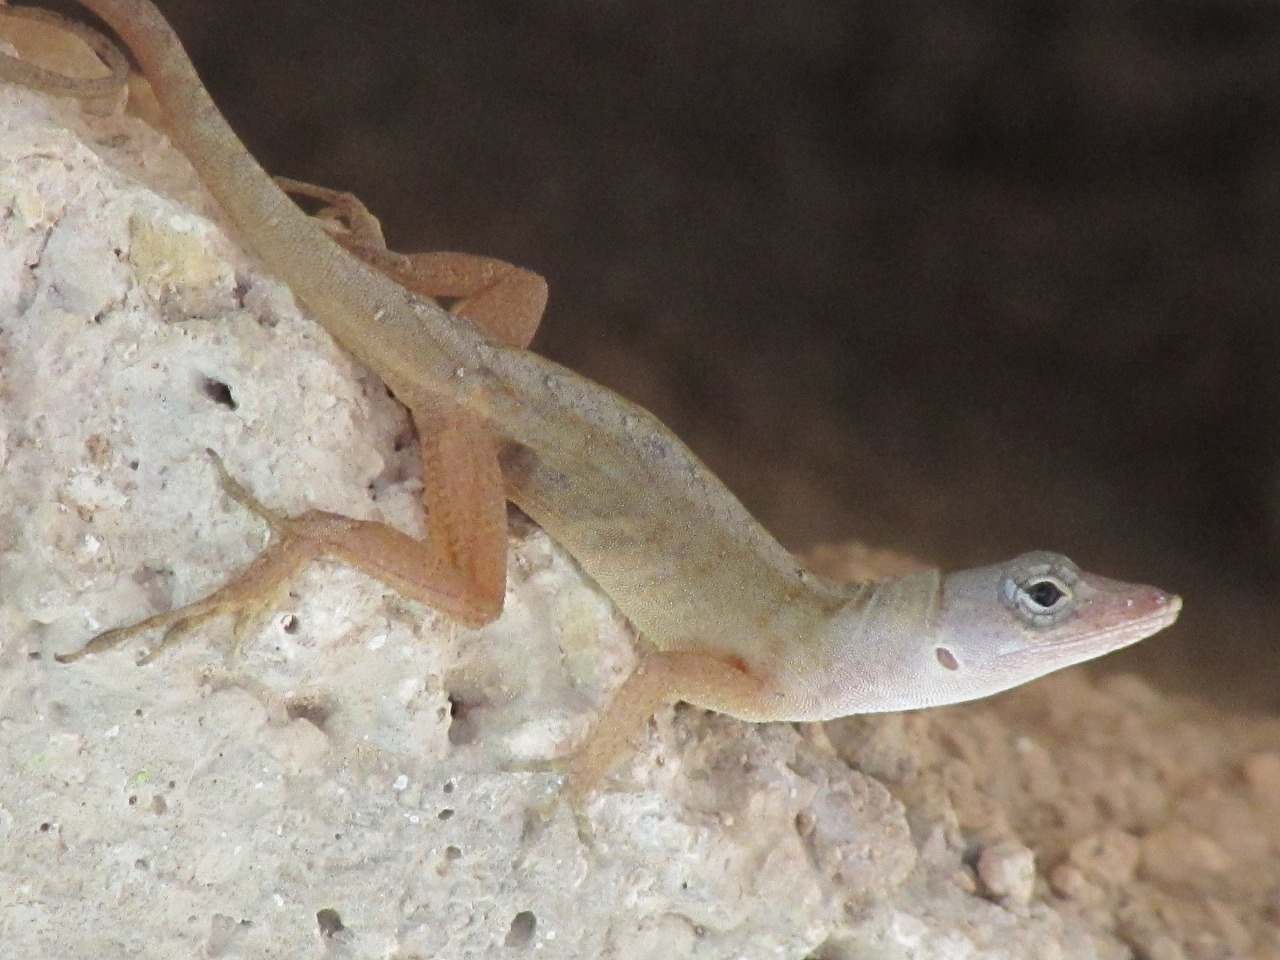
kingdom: Animalia
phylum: Chordata
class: Squamata
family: Dactyloidae
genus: Anolis
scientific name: Anolis sagrei
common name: Brown anole
